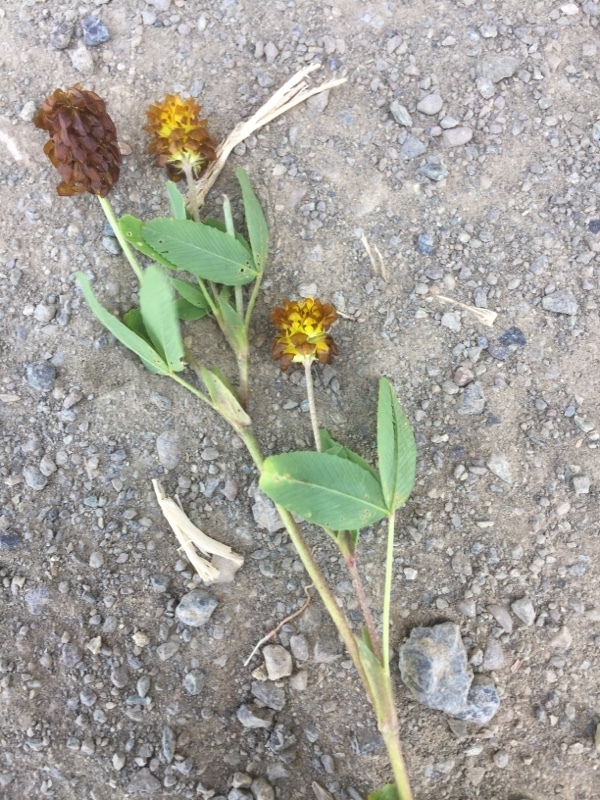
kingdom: Plantae
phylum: Tracheophyta
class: Magnoliopsida
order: Fabales
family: Fabaceae
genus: Trifolium
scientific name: Trifolium spadiceum
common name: Brown moor clover
